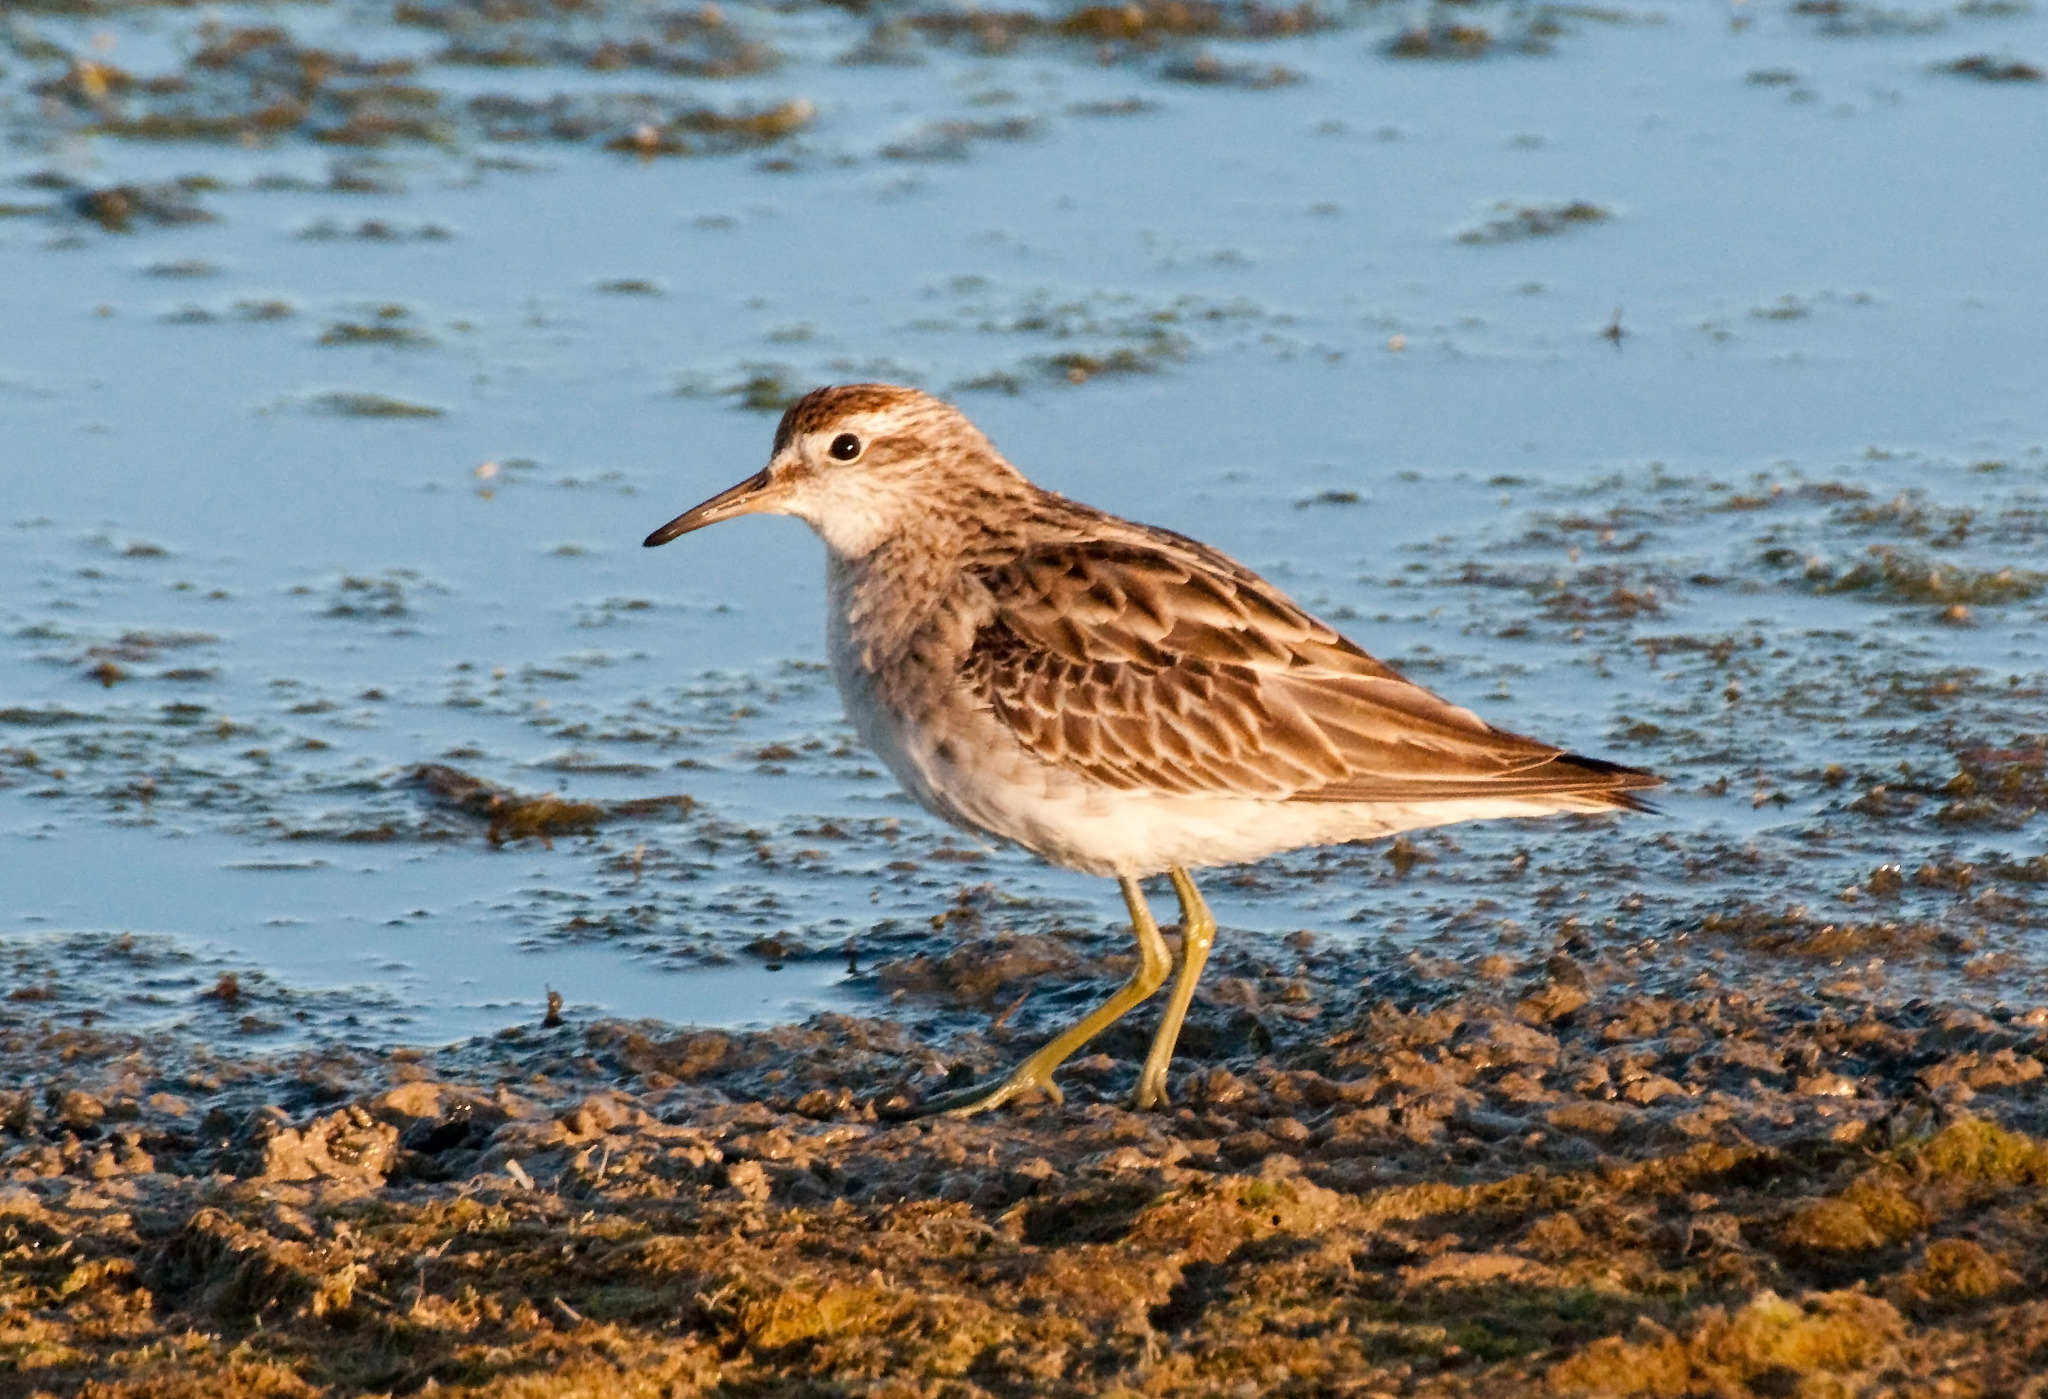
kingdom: Animalia
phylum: Chordata
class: Aves
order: Charadriiformes
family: Scolopacidae
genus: Calidris
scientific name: Calidris acuminata
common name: Sharp-tailed sandpiper
